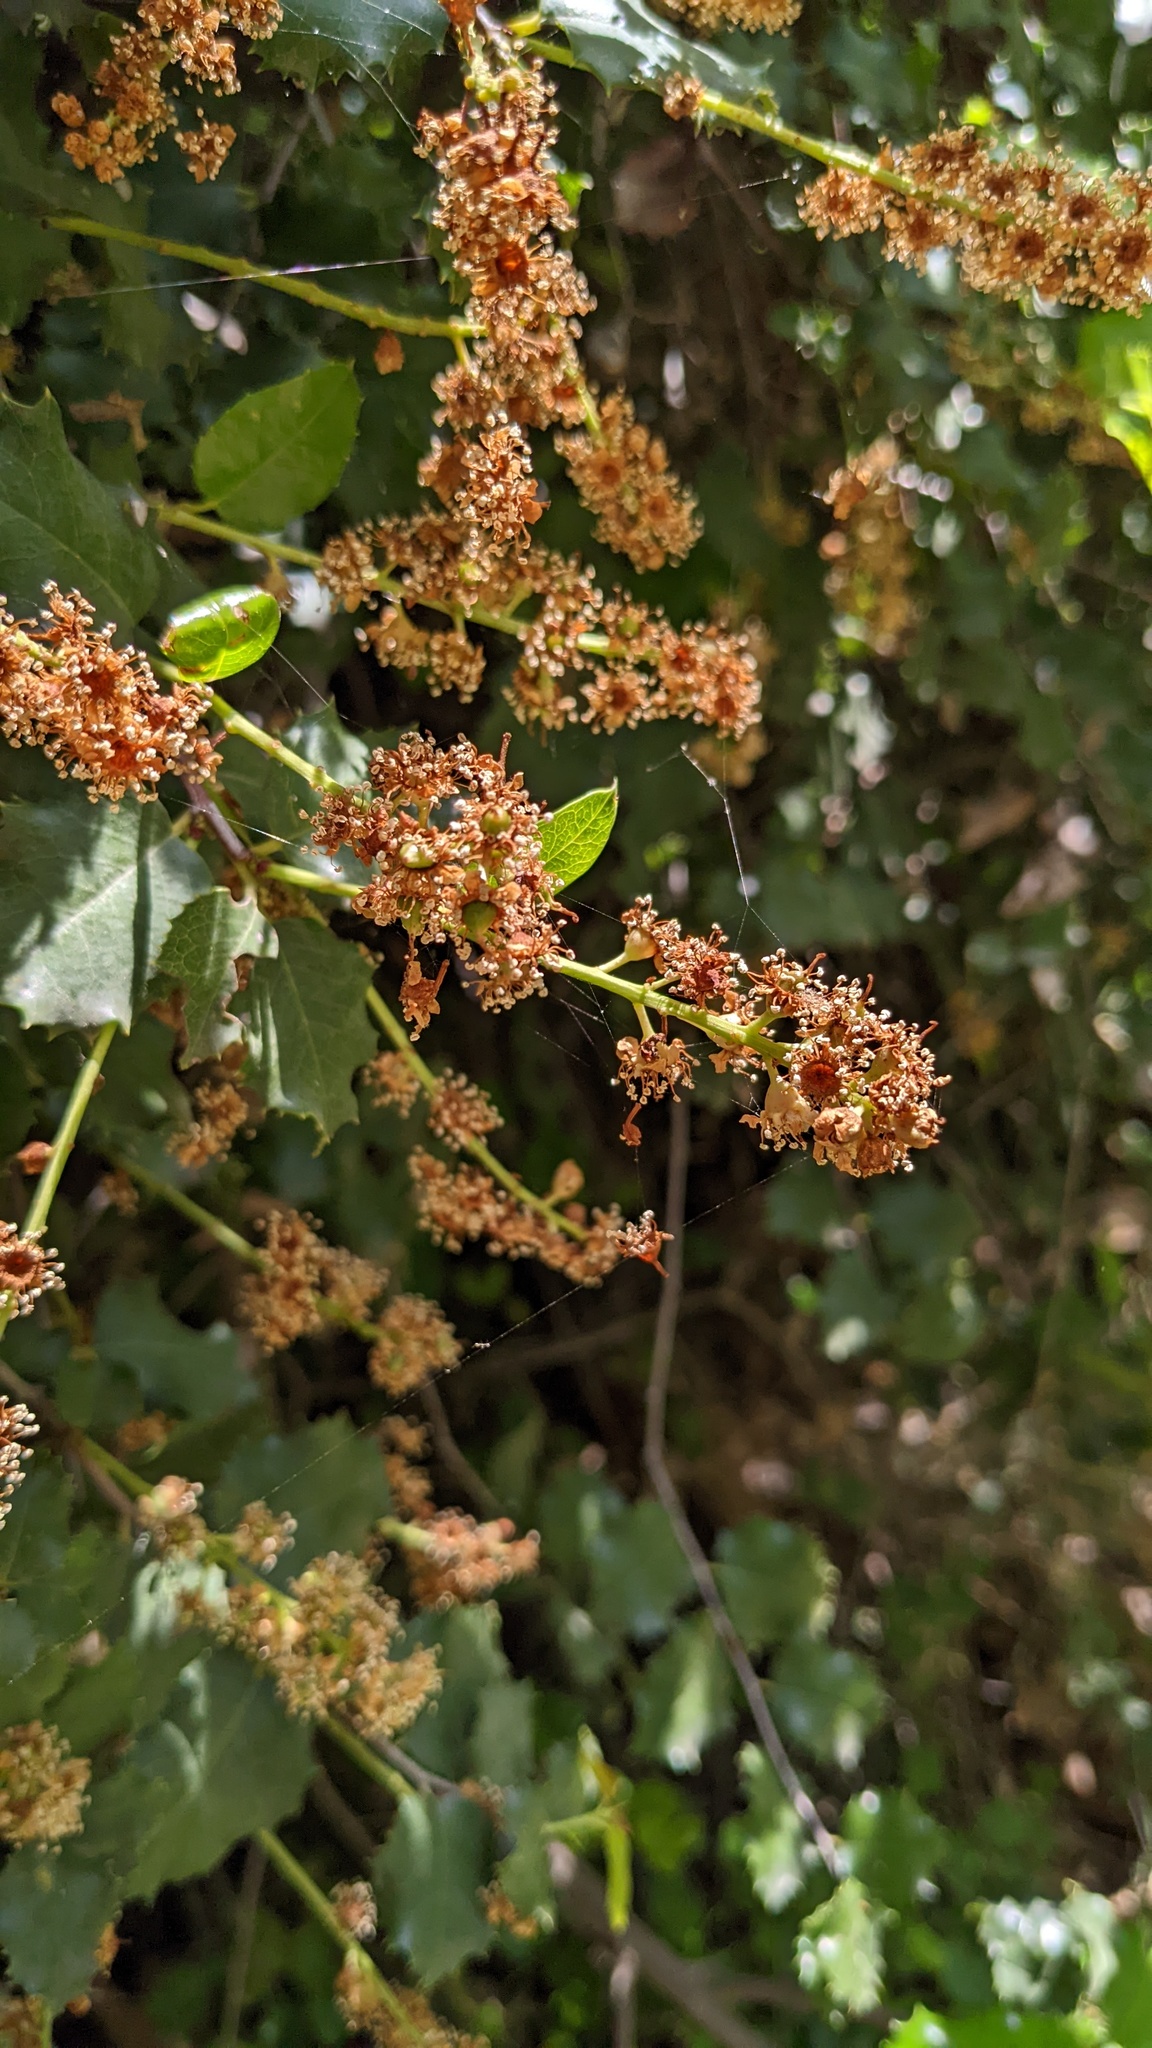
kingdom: Plantae
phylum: Tracheophyta
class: Magnoliopsida
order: Rosales
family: Rosaceae
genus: Prunus
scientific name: Prunus ilicifolia
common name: Hollyleaf cherry
